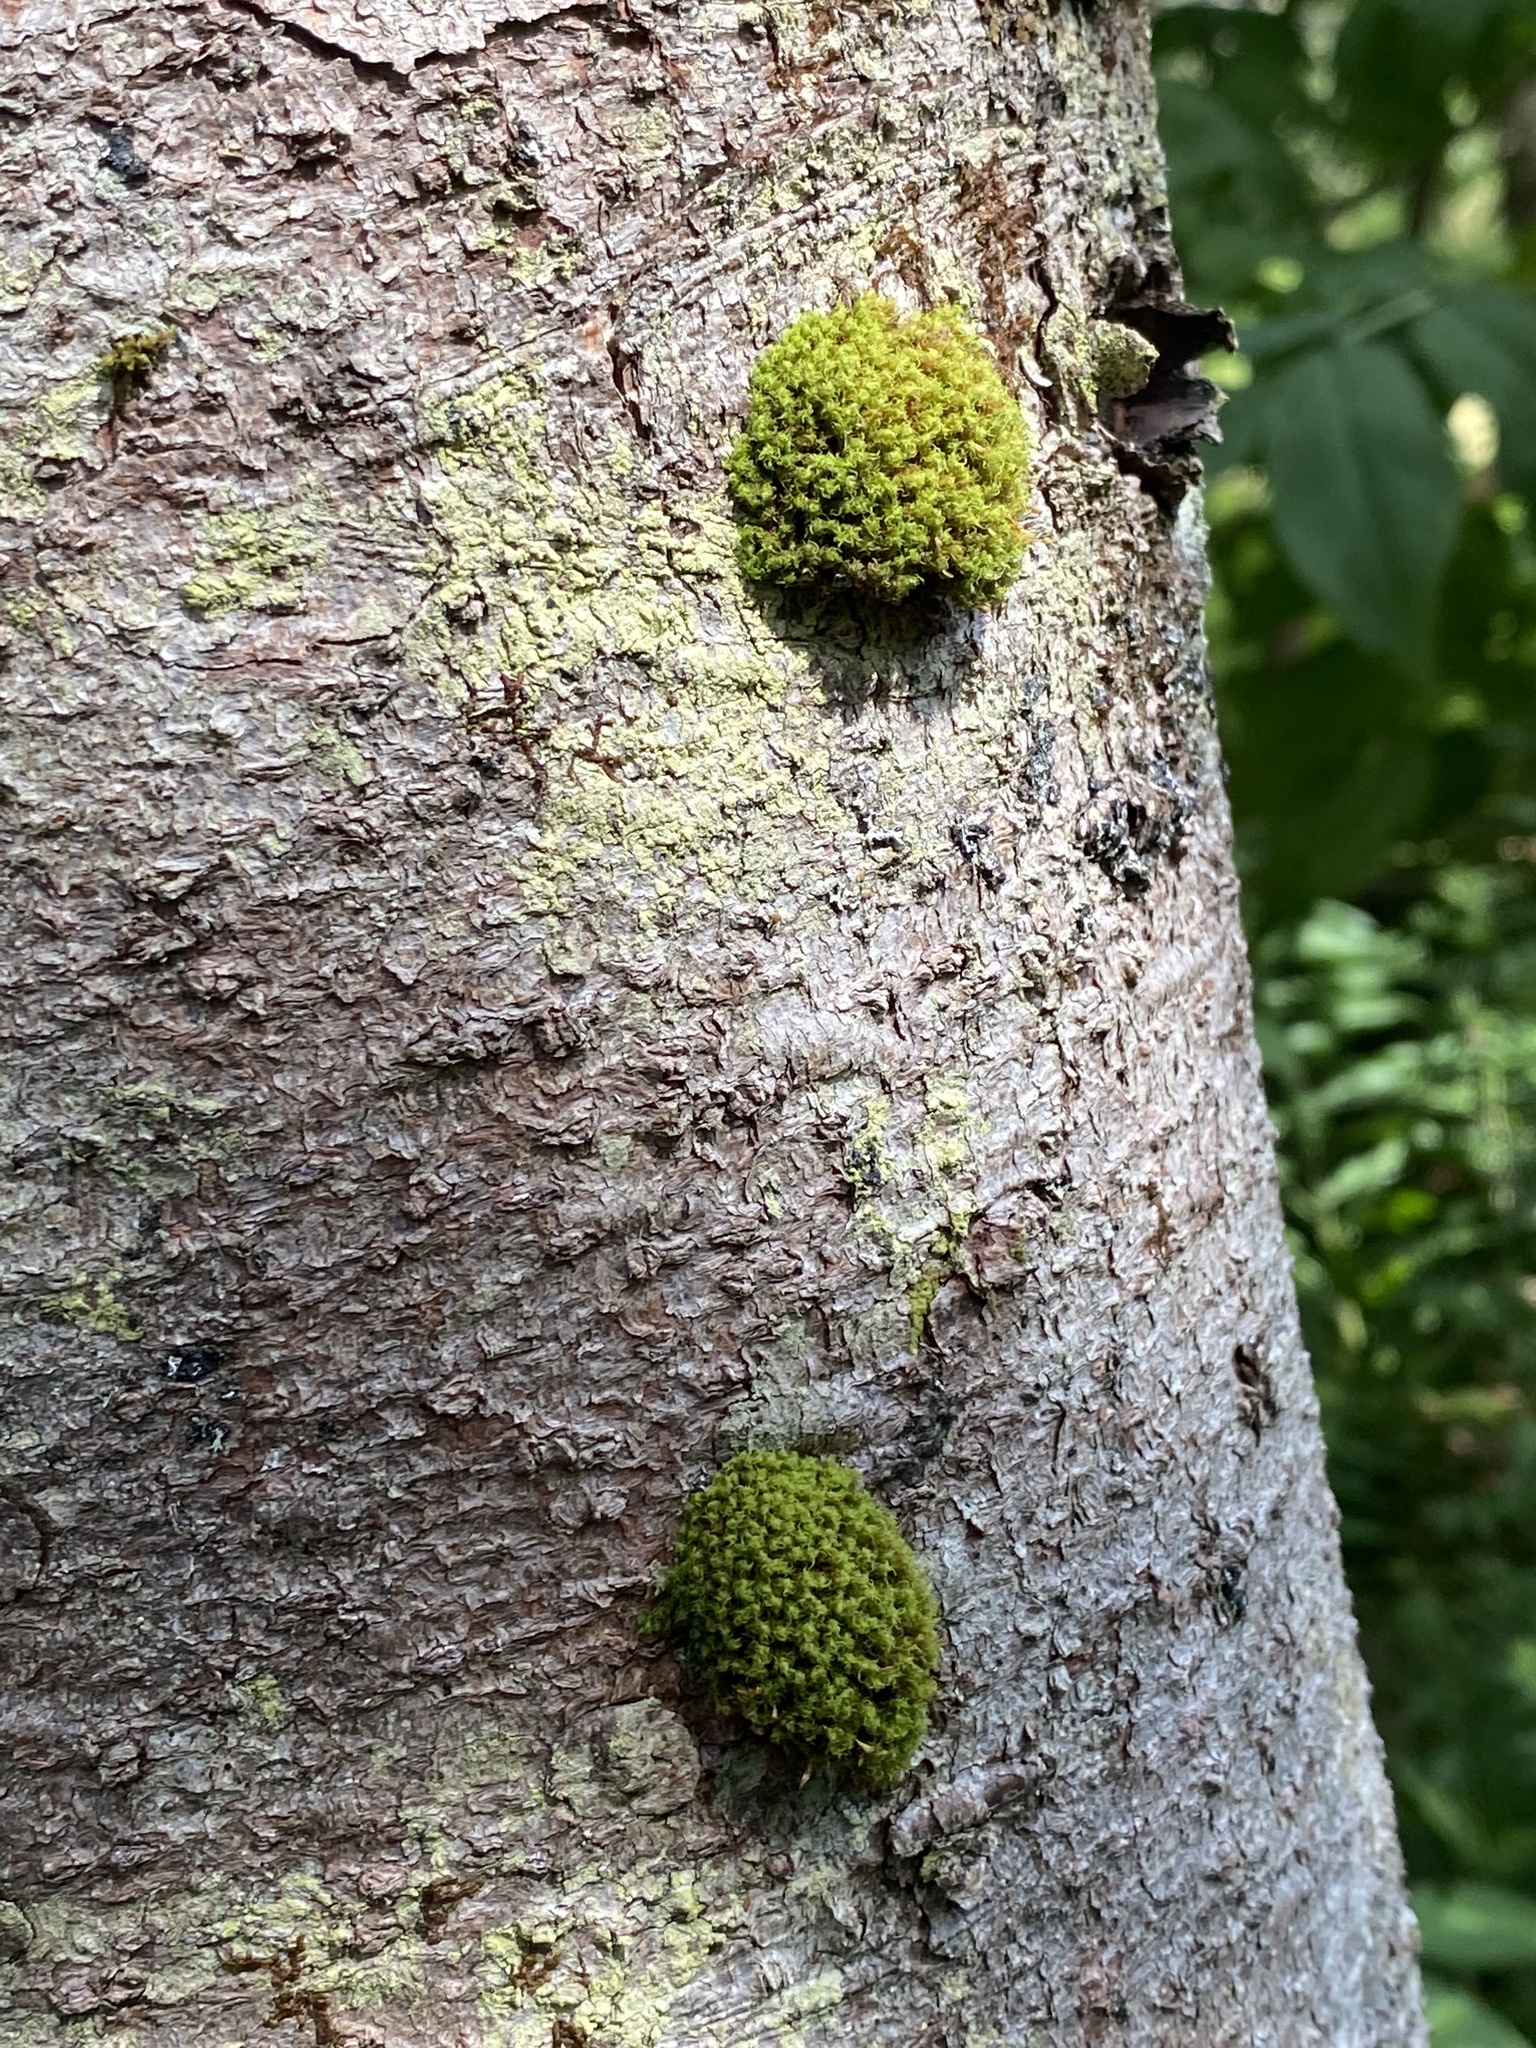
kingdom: Plantae
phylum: Bryophyta
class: Bryopsida
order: Orthotrichales
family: Orthotrichaceae
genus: Ulota
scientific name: Ulota crispa
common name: Crisped pincushion moss
